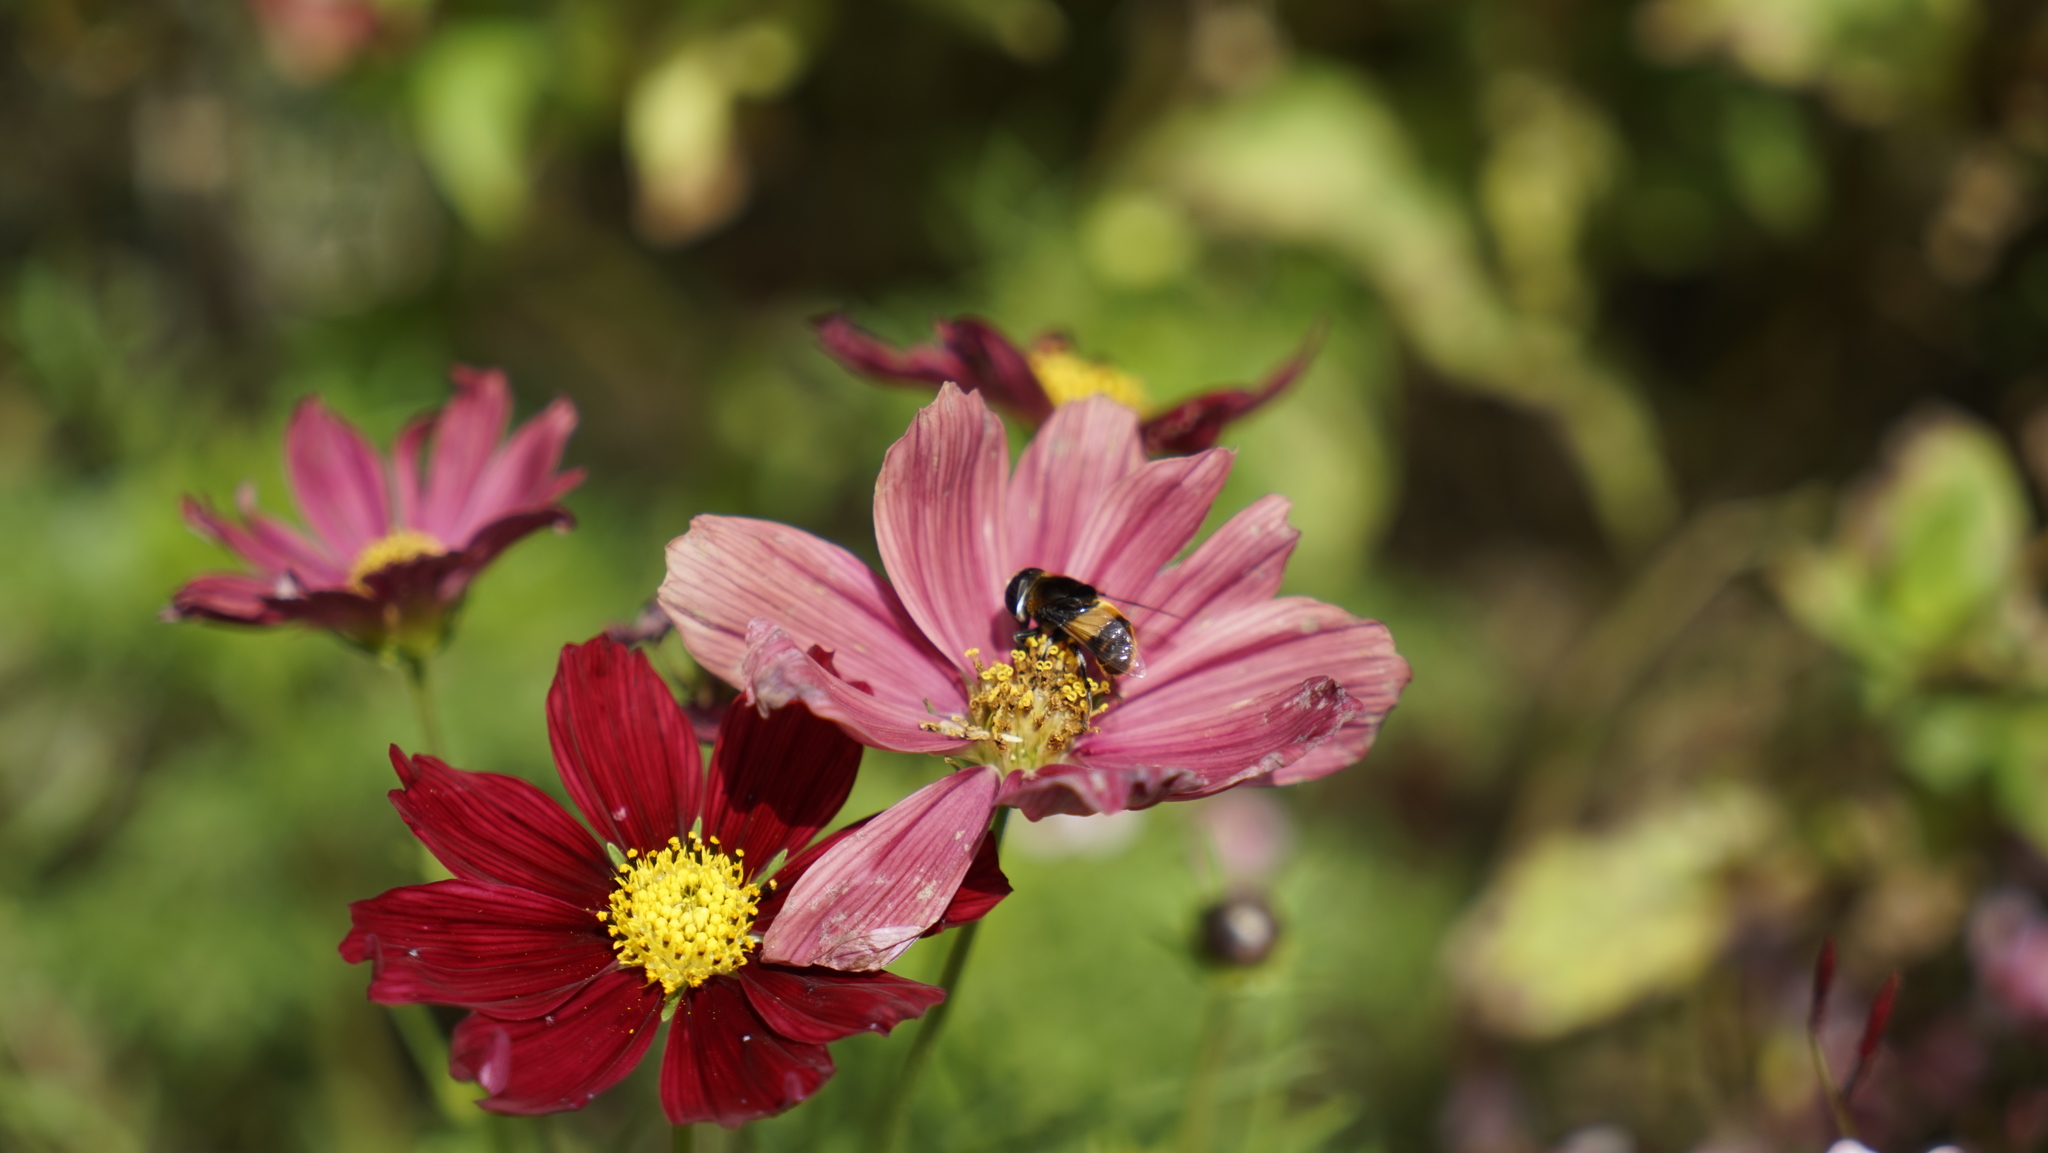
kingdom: Animalia
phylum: Arthropoda
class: Insecta
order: Diptera
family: Syrphidae
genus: Phytomia
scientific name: Phytomia zonata
